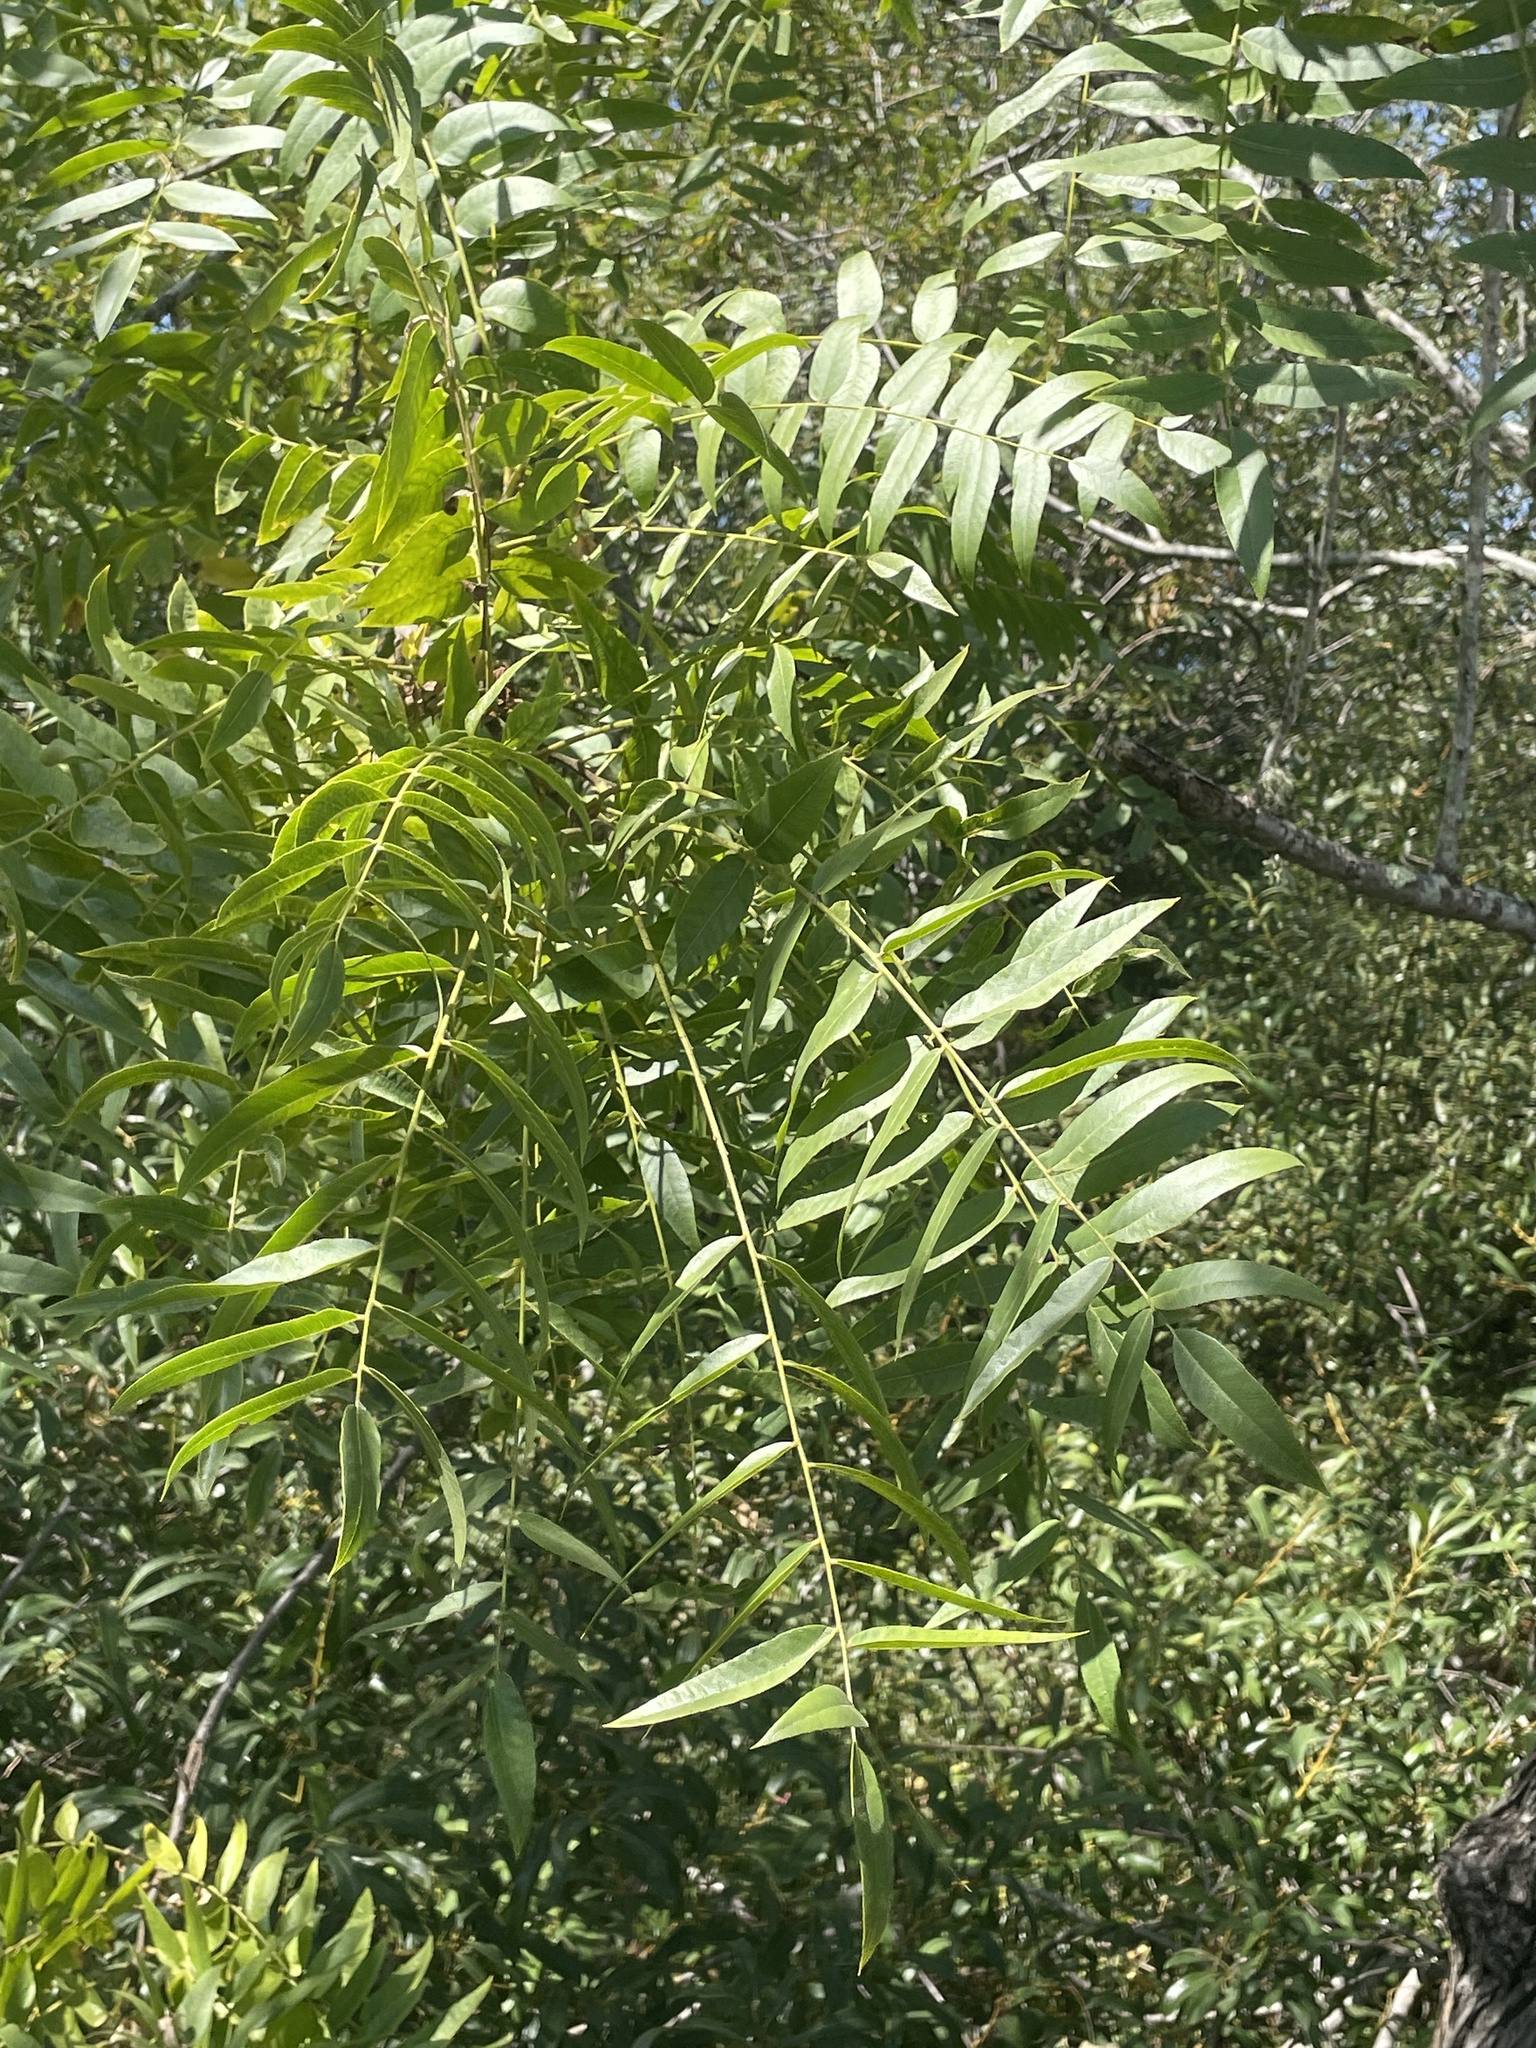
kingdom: Plantae
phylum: Tracheophyta
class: Magnoliopsida
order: Fagales
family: Juglandaceae
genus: Juglans
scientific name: Juglans hindsii
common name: Northern california black walnut
